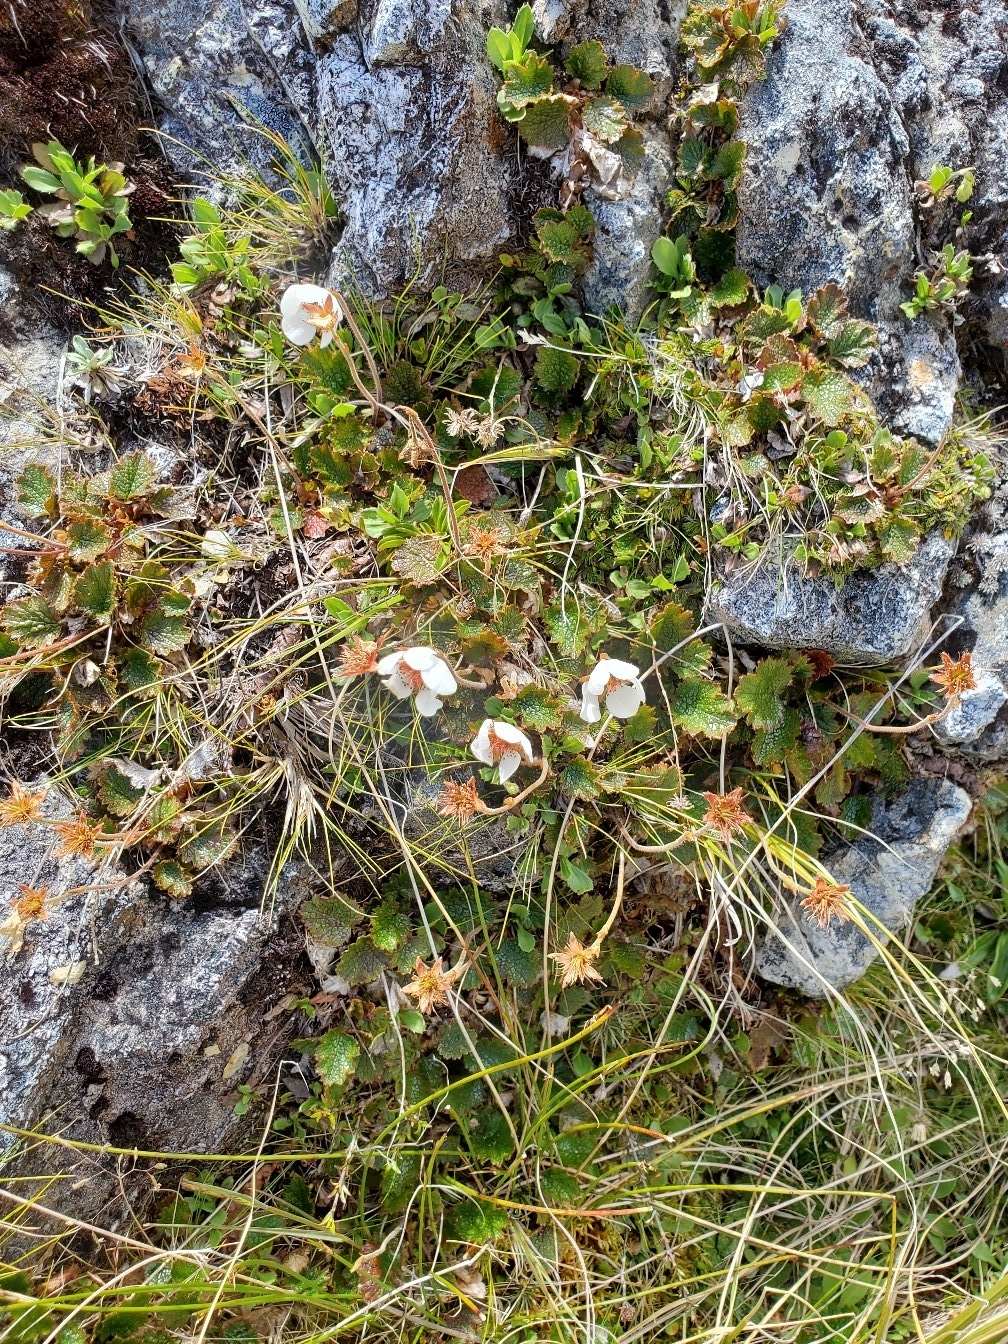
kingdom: Plantae
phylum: Tracheophyta
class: Magnoliopsida
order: Rosales
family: Rosaceae
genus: Geum
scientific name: Geum uniflorum
